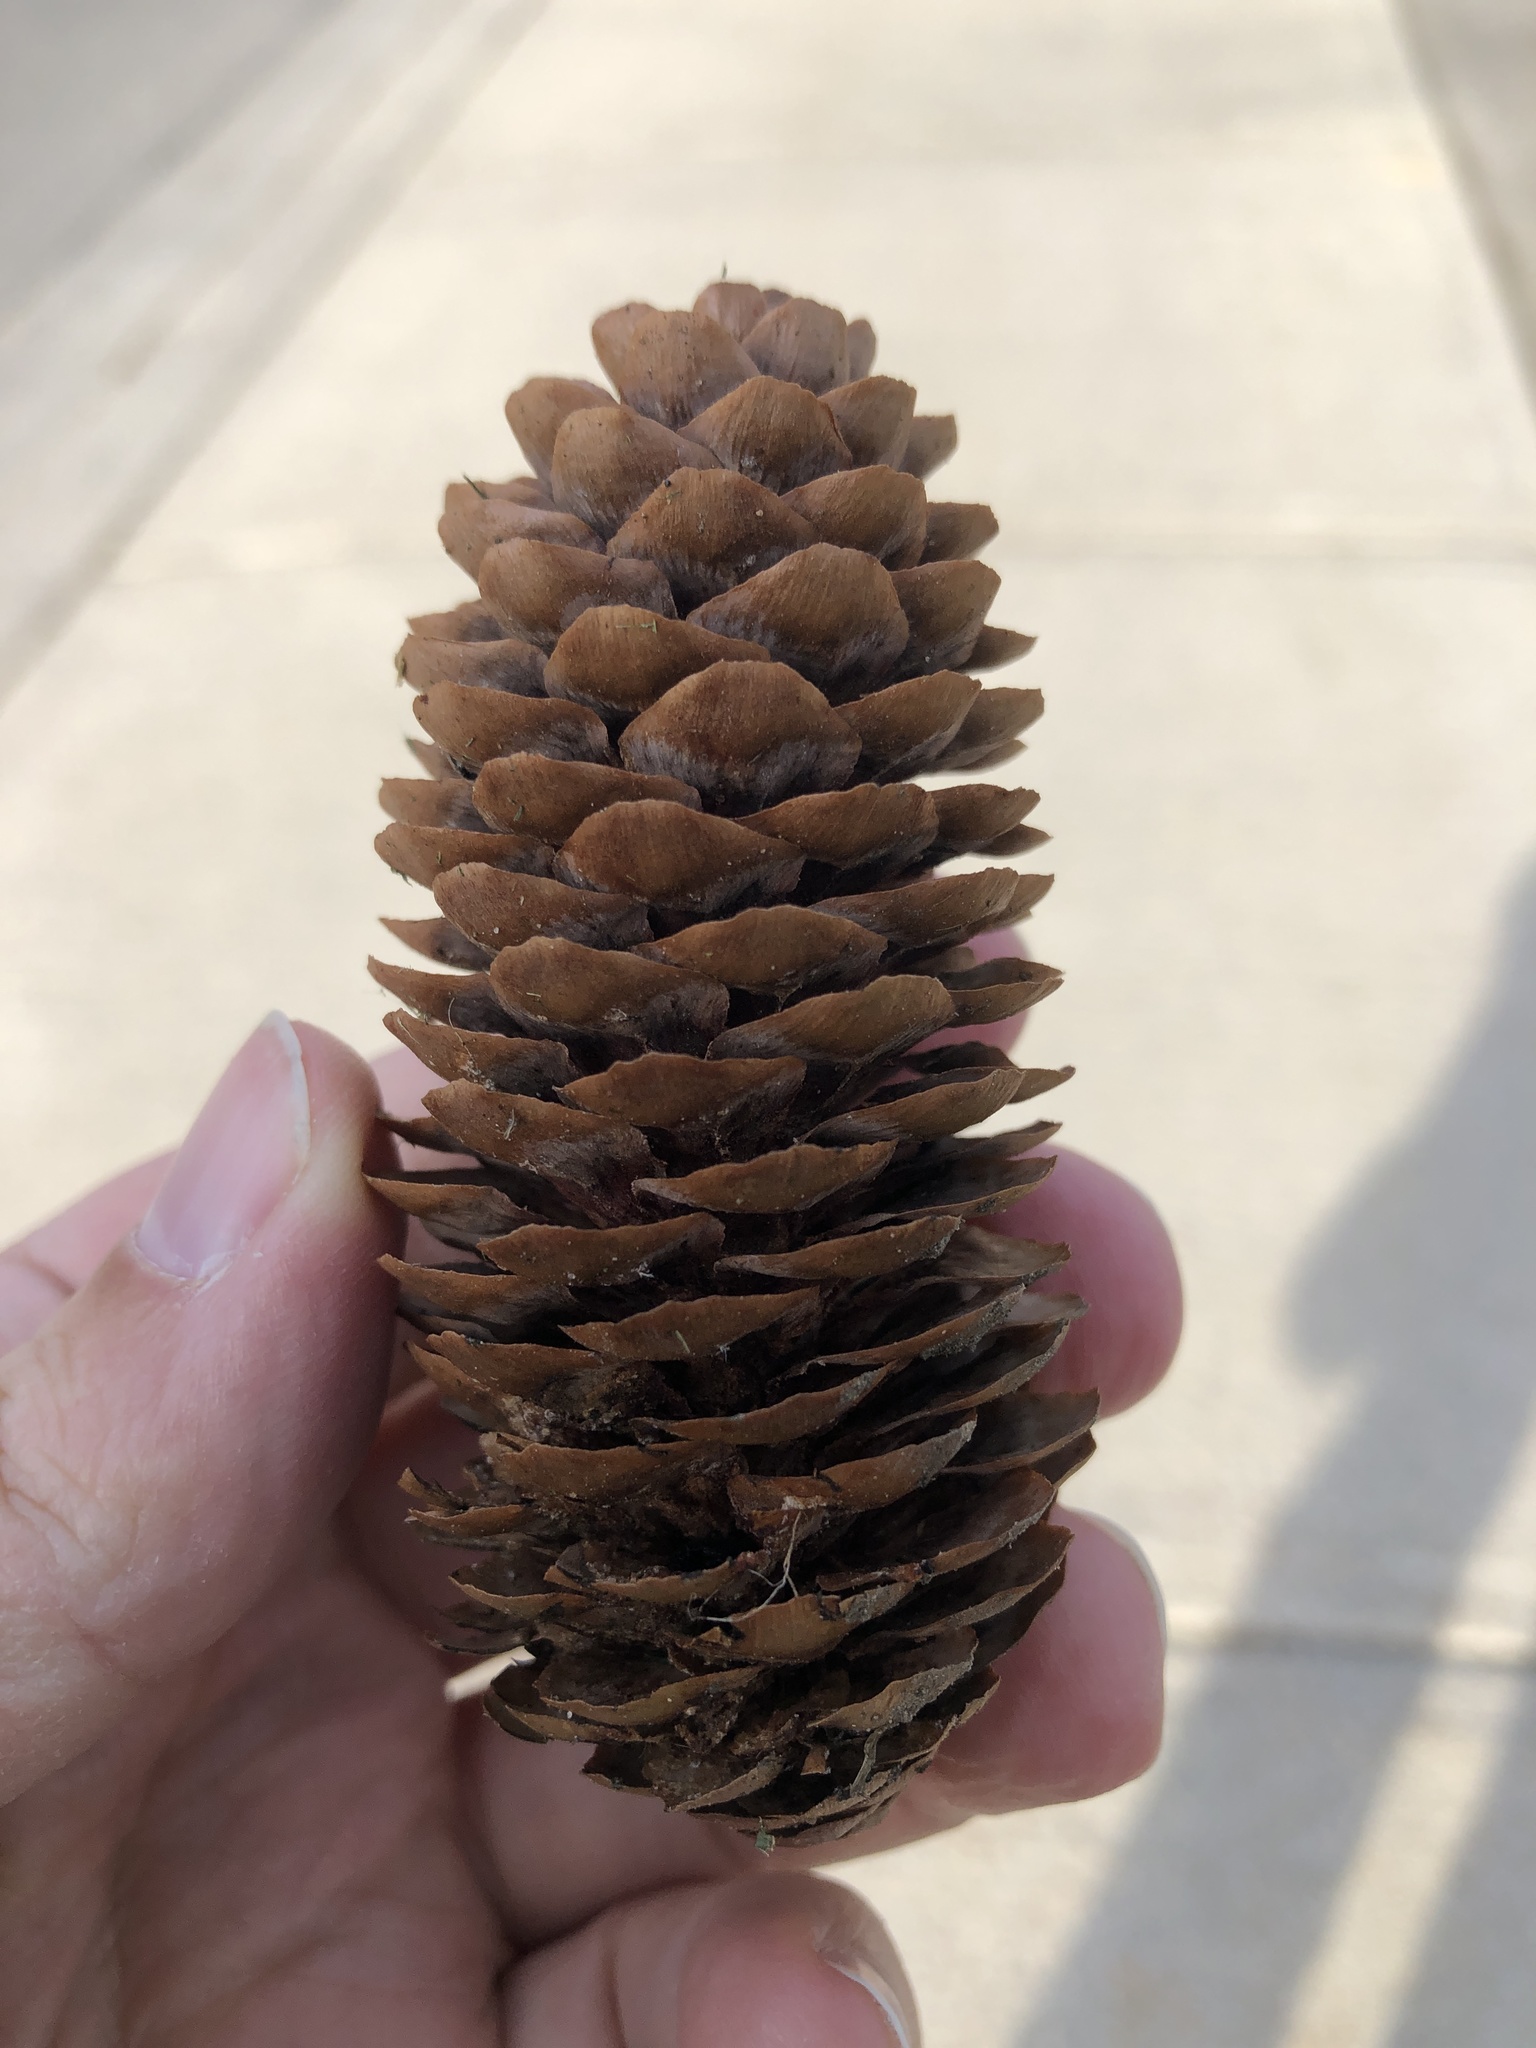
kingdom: Plantae
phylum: Tracheophyta
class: Pinopsida
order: Pinales
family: Pinaceae
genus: Picea
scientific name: Picea abies
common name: Norway spruce
